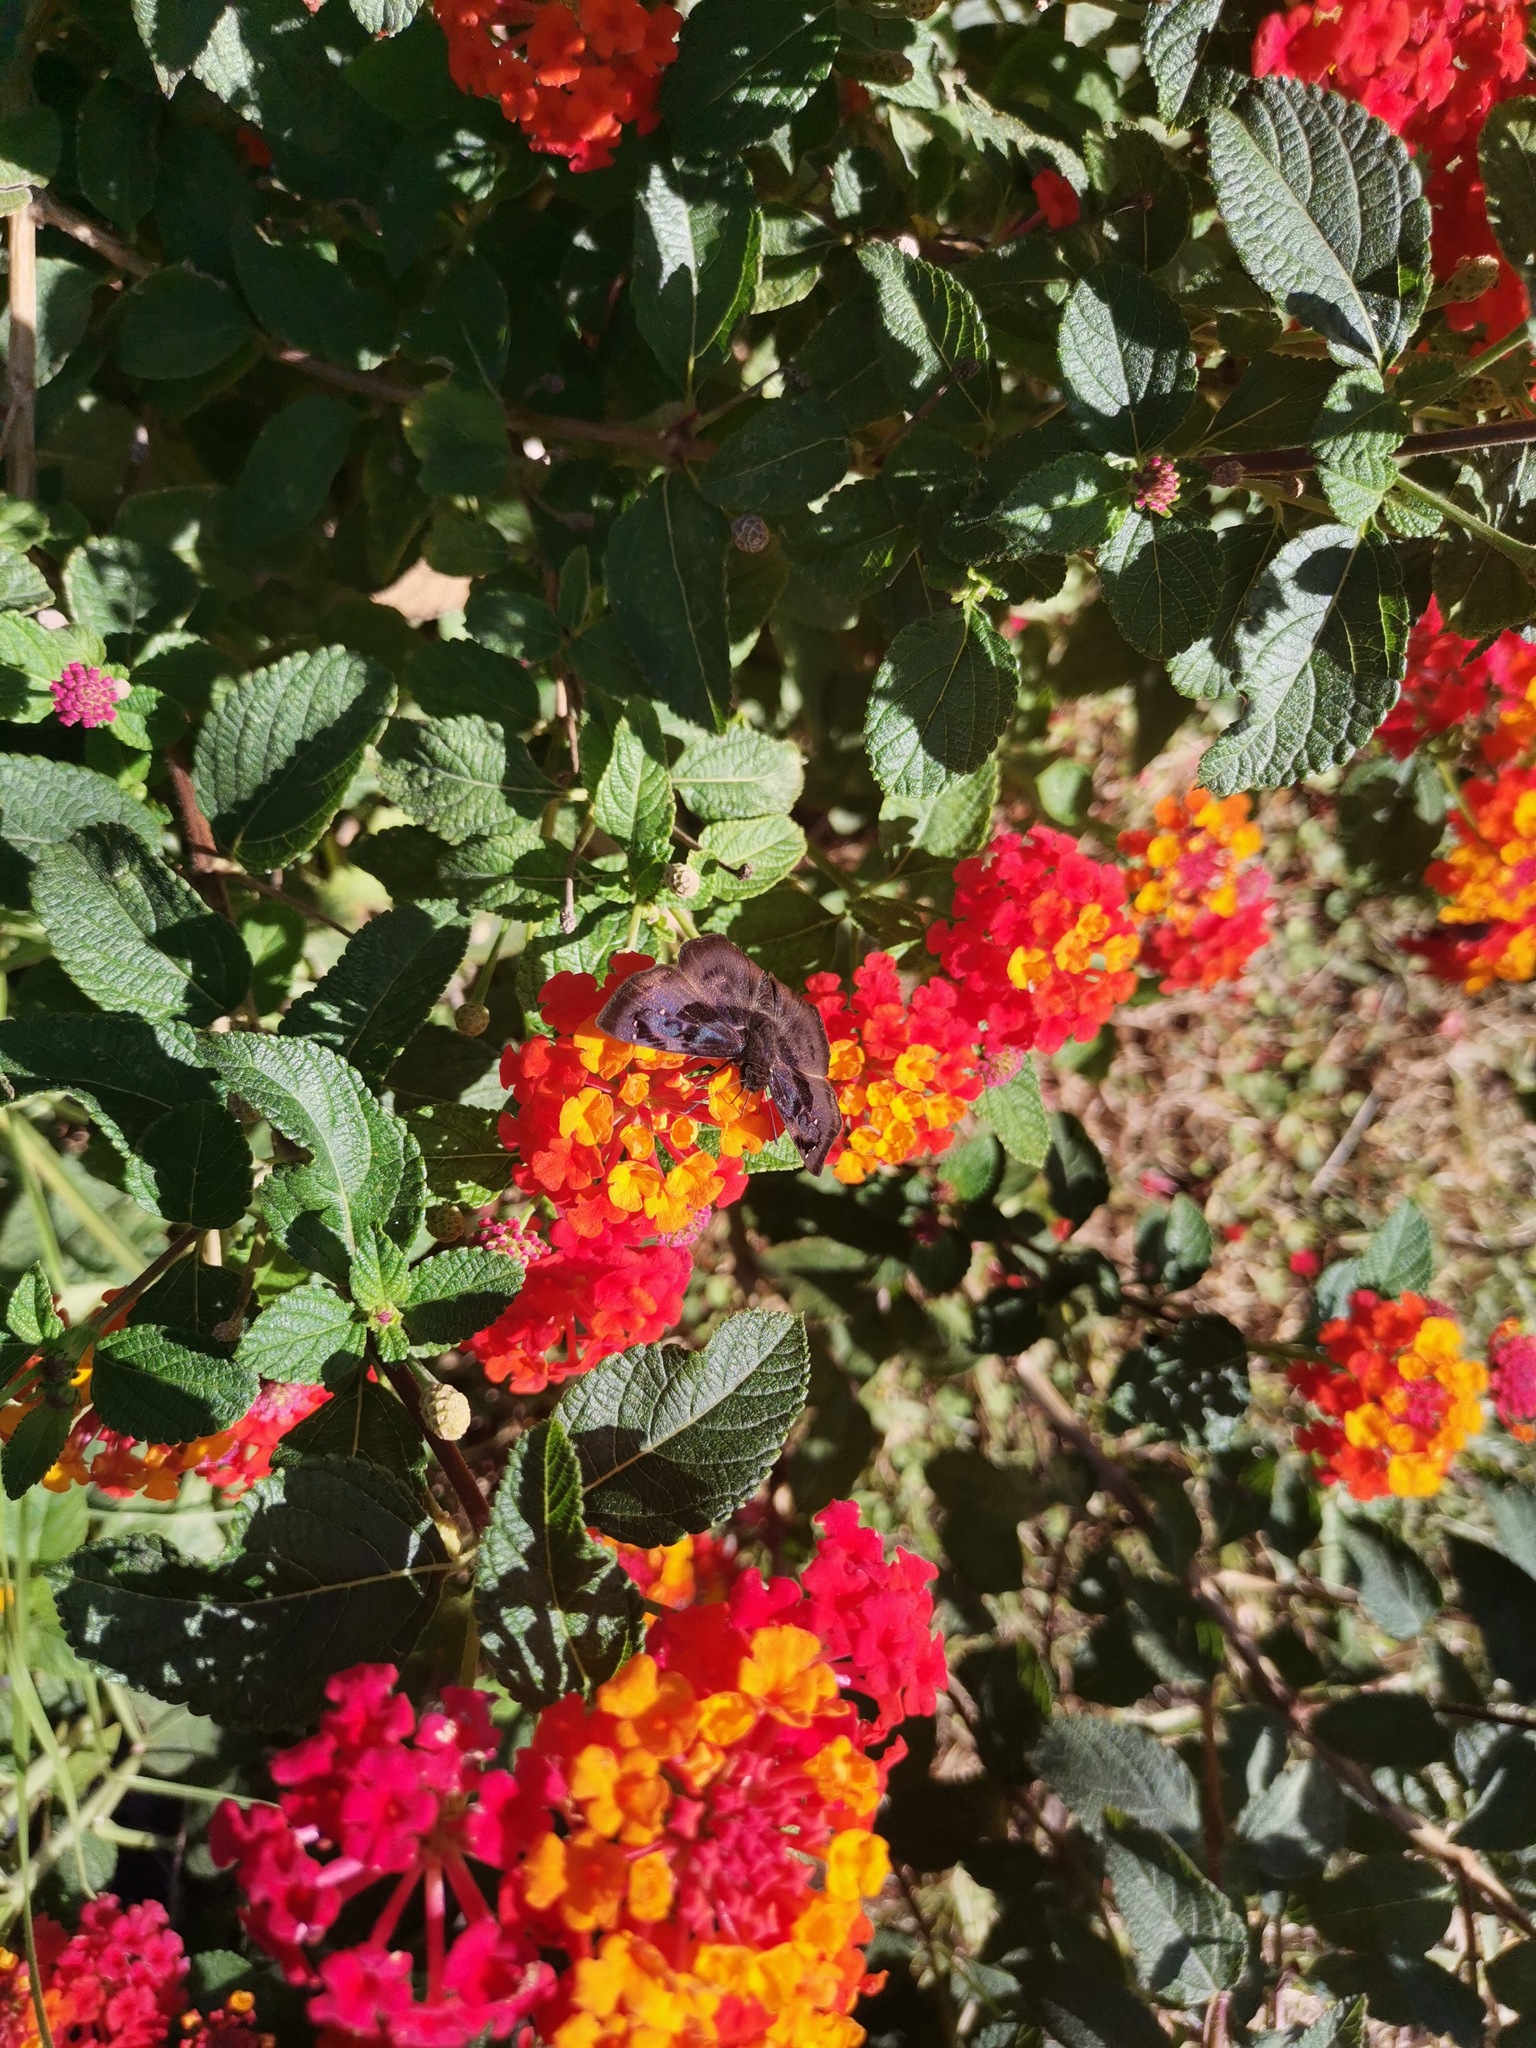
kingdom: Animalia
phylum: Arthropoda
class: Insecta
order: Lepidoptera
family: Hesperiidae
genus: Zera
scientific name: Zera hyacinthinus
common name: Bruised skipper
